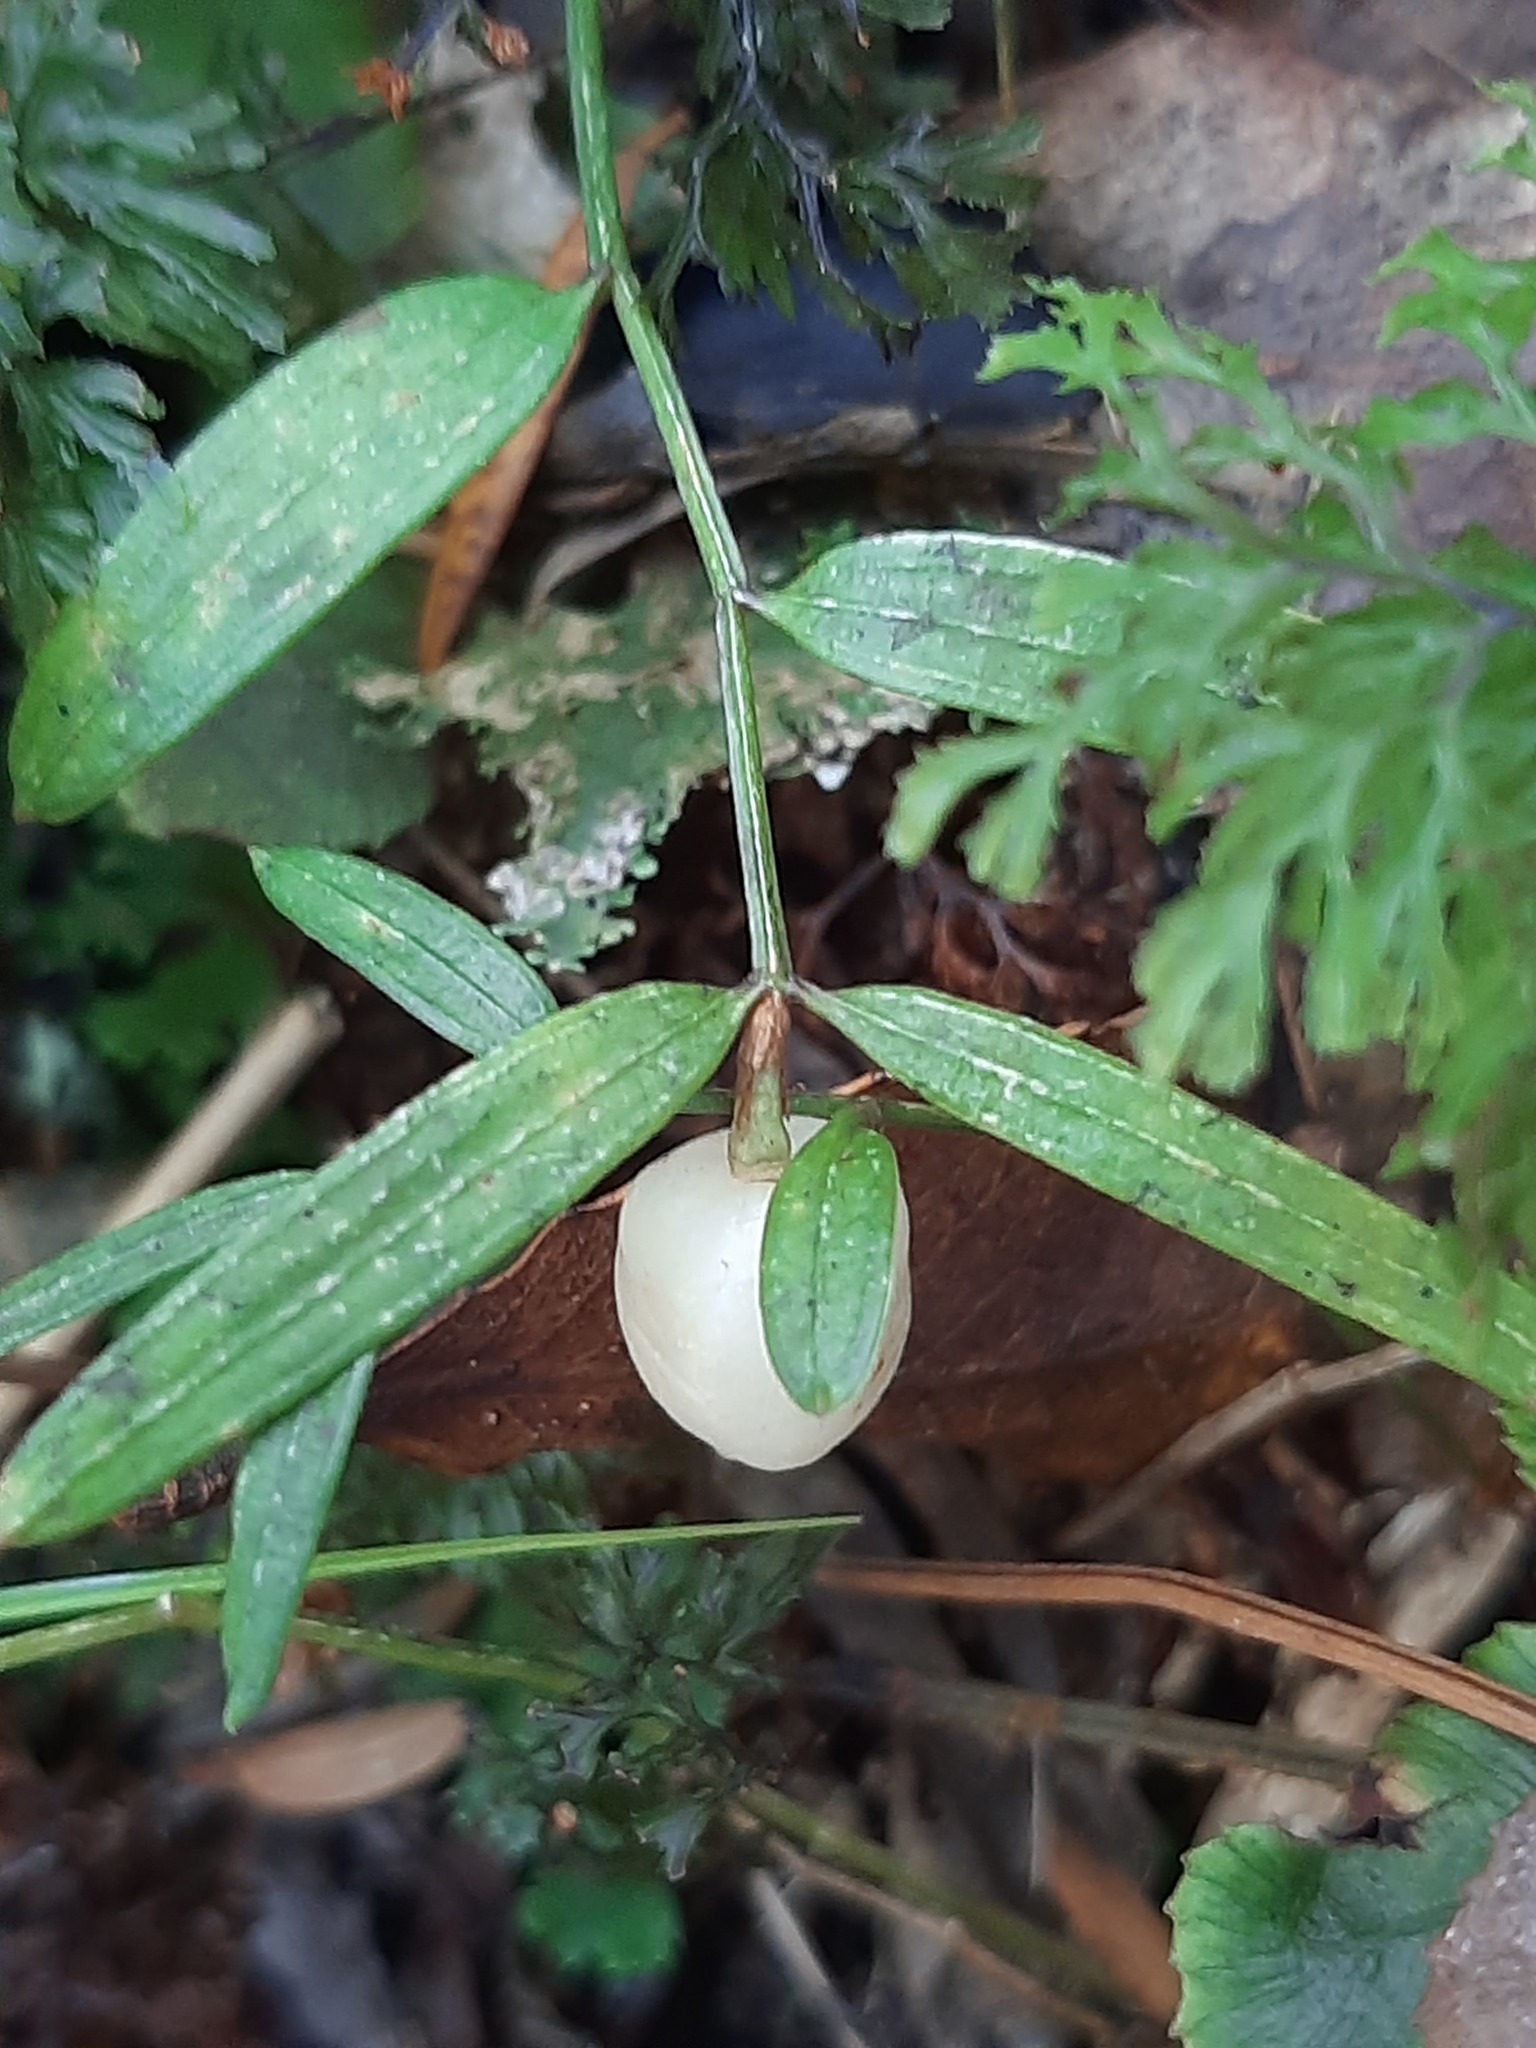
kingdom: Plantae
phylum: Tracheophyta
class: Liliopsida
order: Liliales
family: Alstroemeriaceae
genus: Luzuriaga
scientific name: Luzuriaga parviflora
